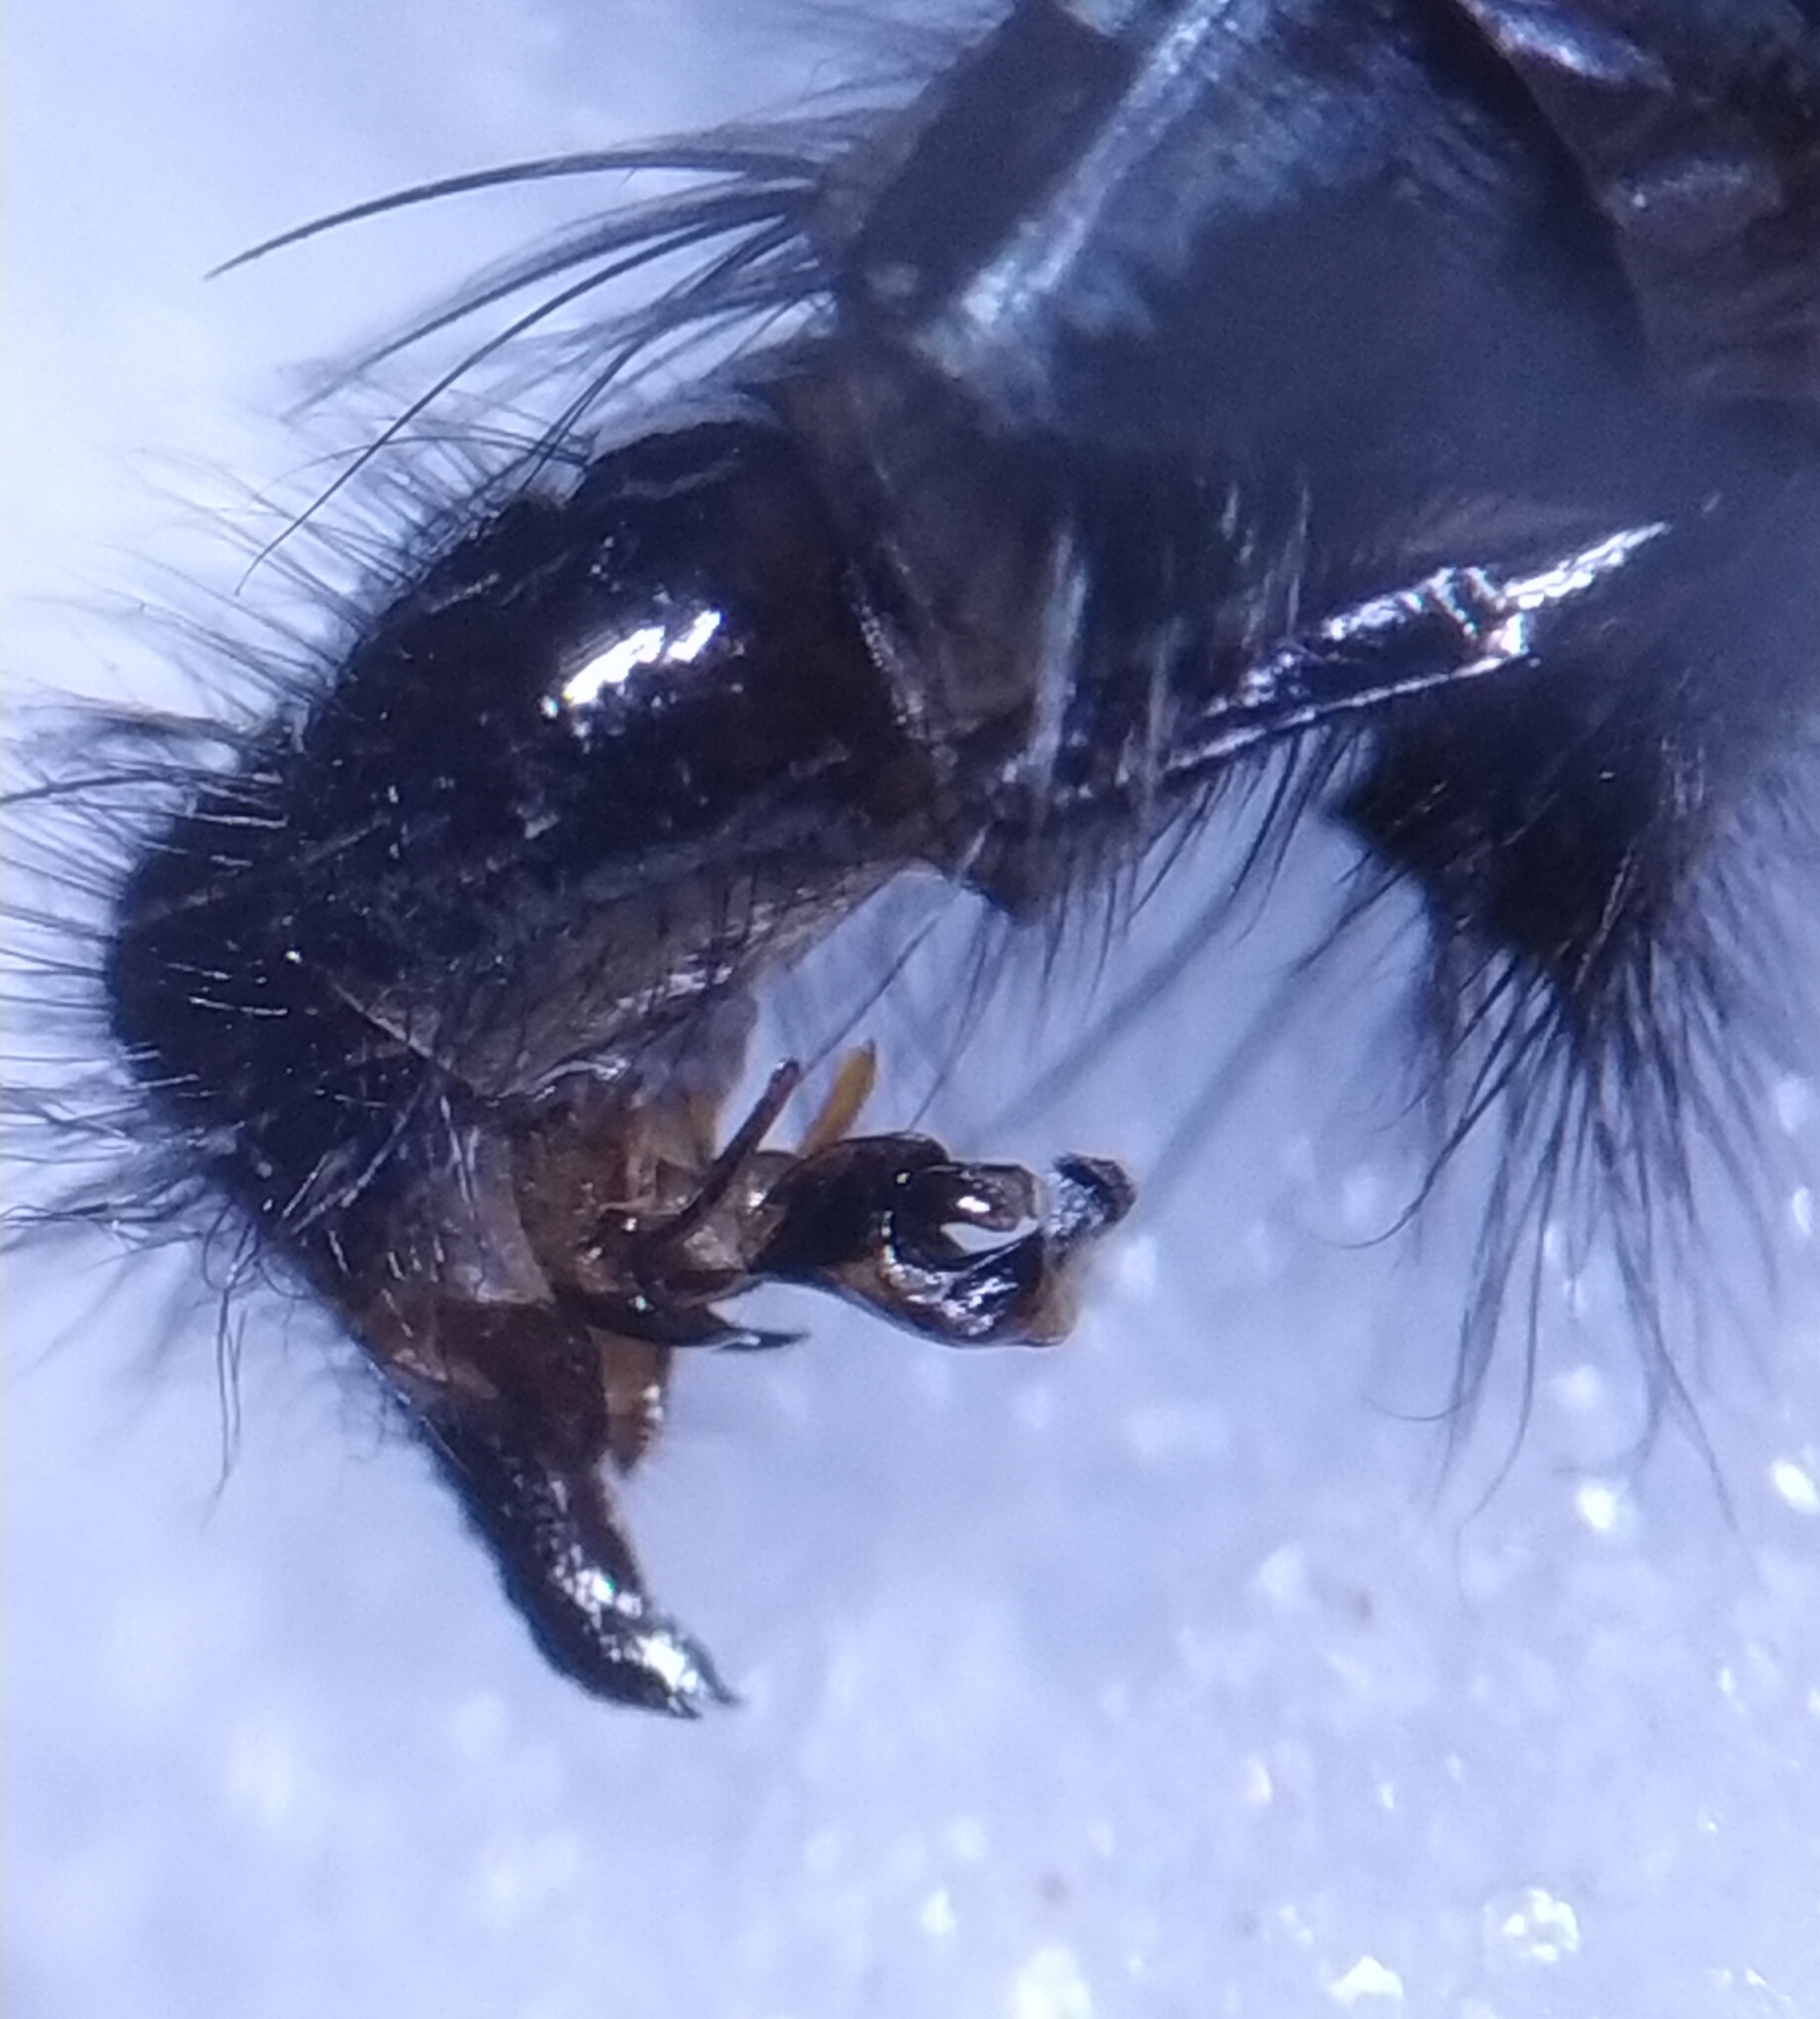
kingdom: Animalia
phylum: Arthropoda
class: Insecta
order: Diptera
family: Sarcophagidae
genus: Sarcophaga
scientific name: Sarcophaga variegata
